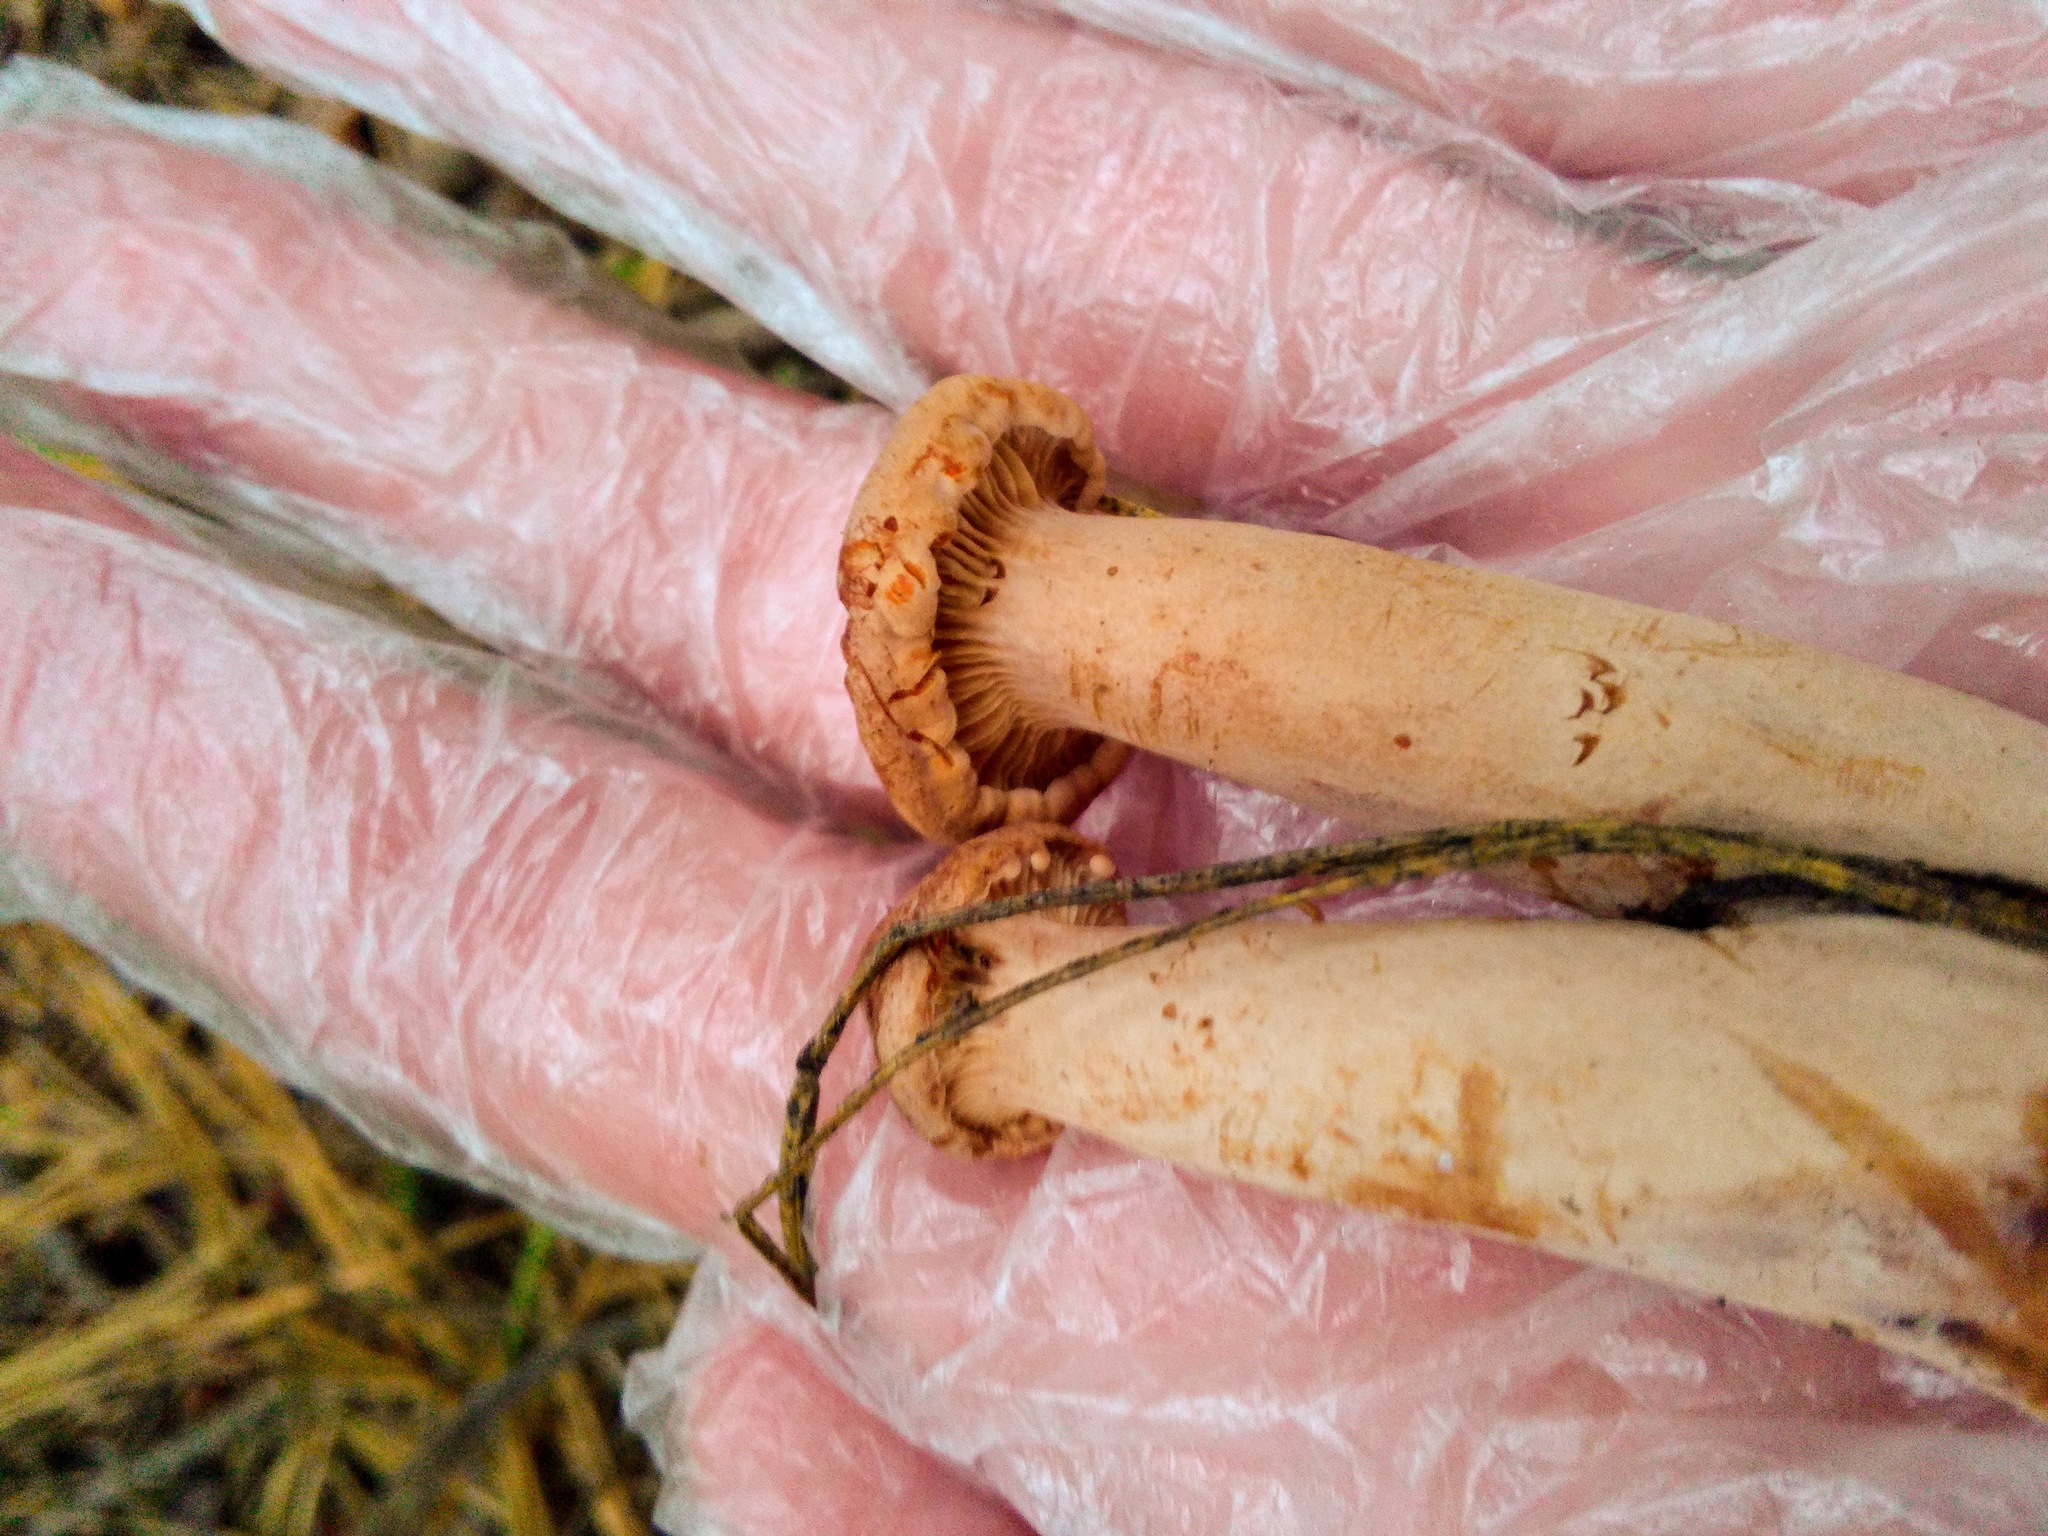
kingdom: Fungi
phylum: Basidiomycota
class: Agaricomycetes
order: Russulales
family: Russulaceae
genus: Lactarius
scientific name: Lactarius rufus
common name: Rufous milk-cap
